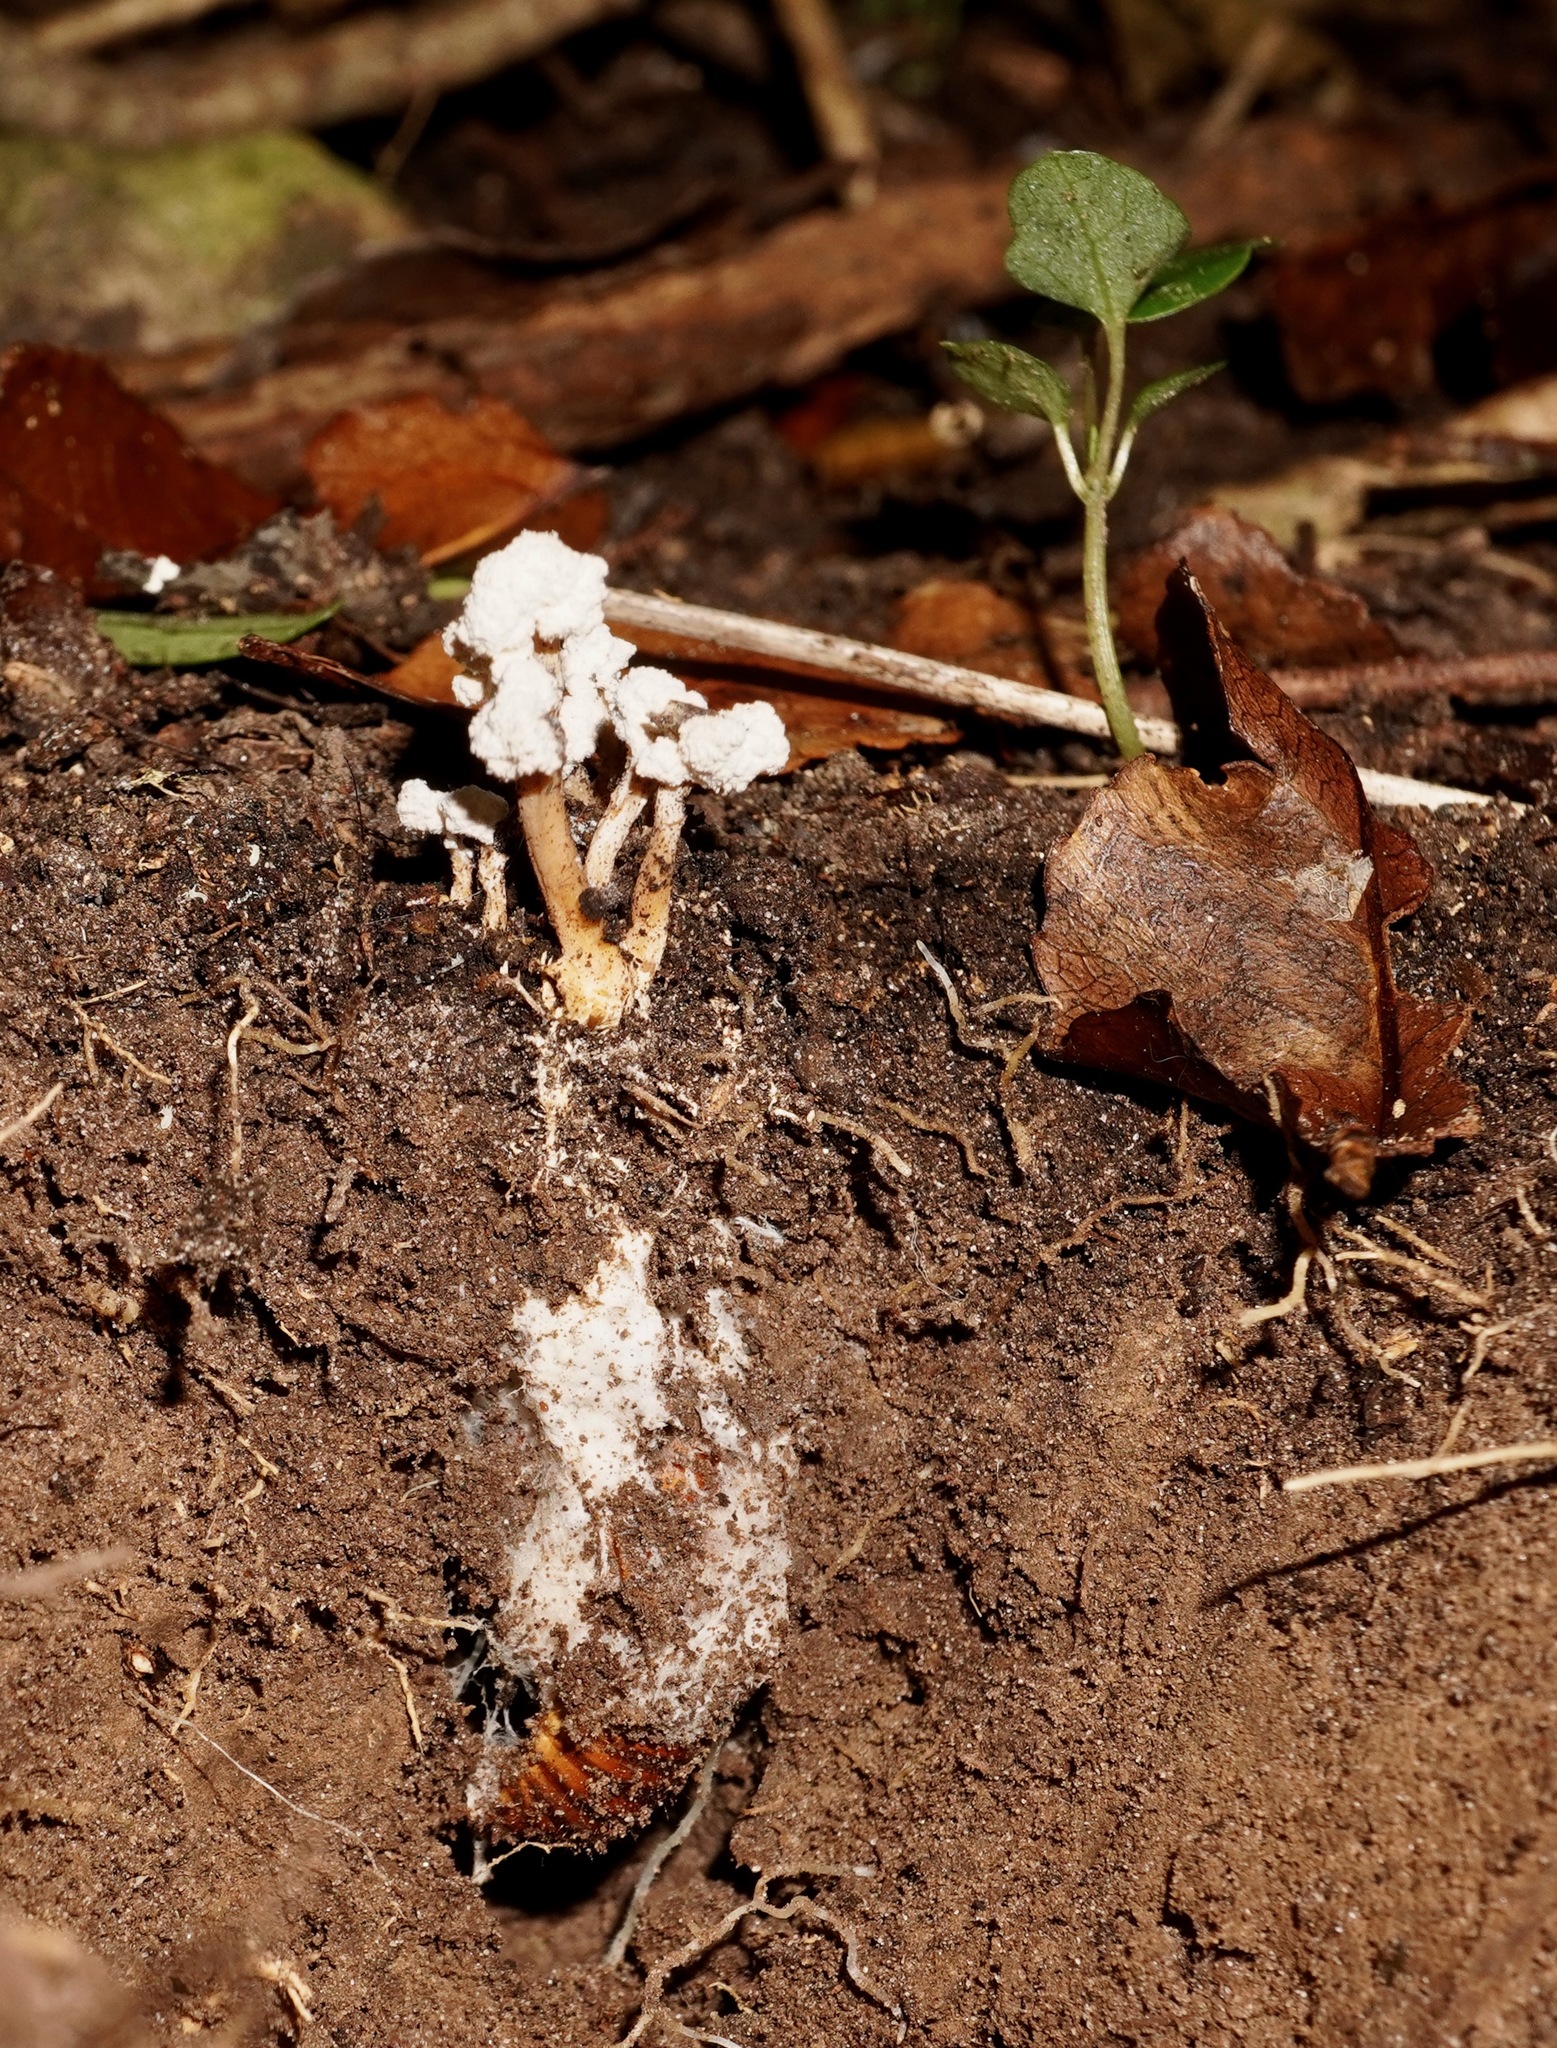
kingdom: Fungi
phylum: Ascomycota
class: Sordariomycetes
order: Hypocreales
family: Cordycipitaceae
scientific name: Cordycipitaceae
